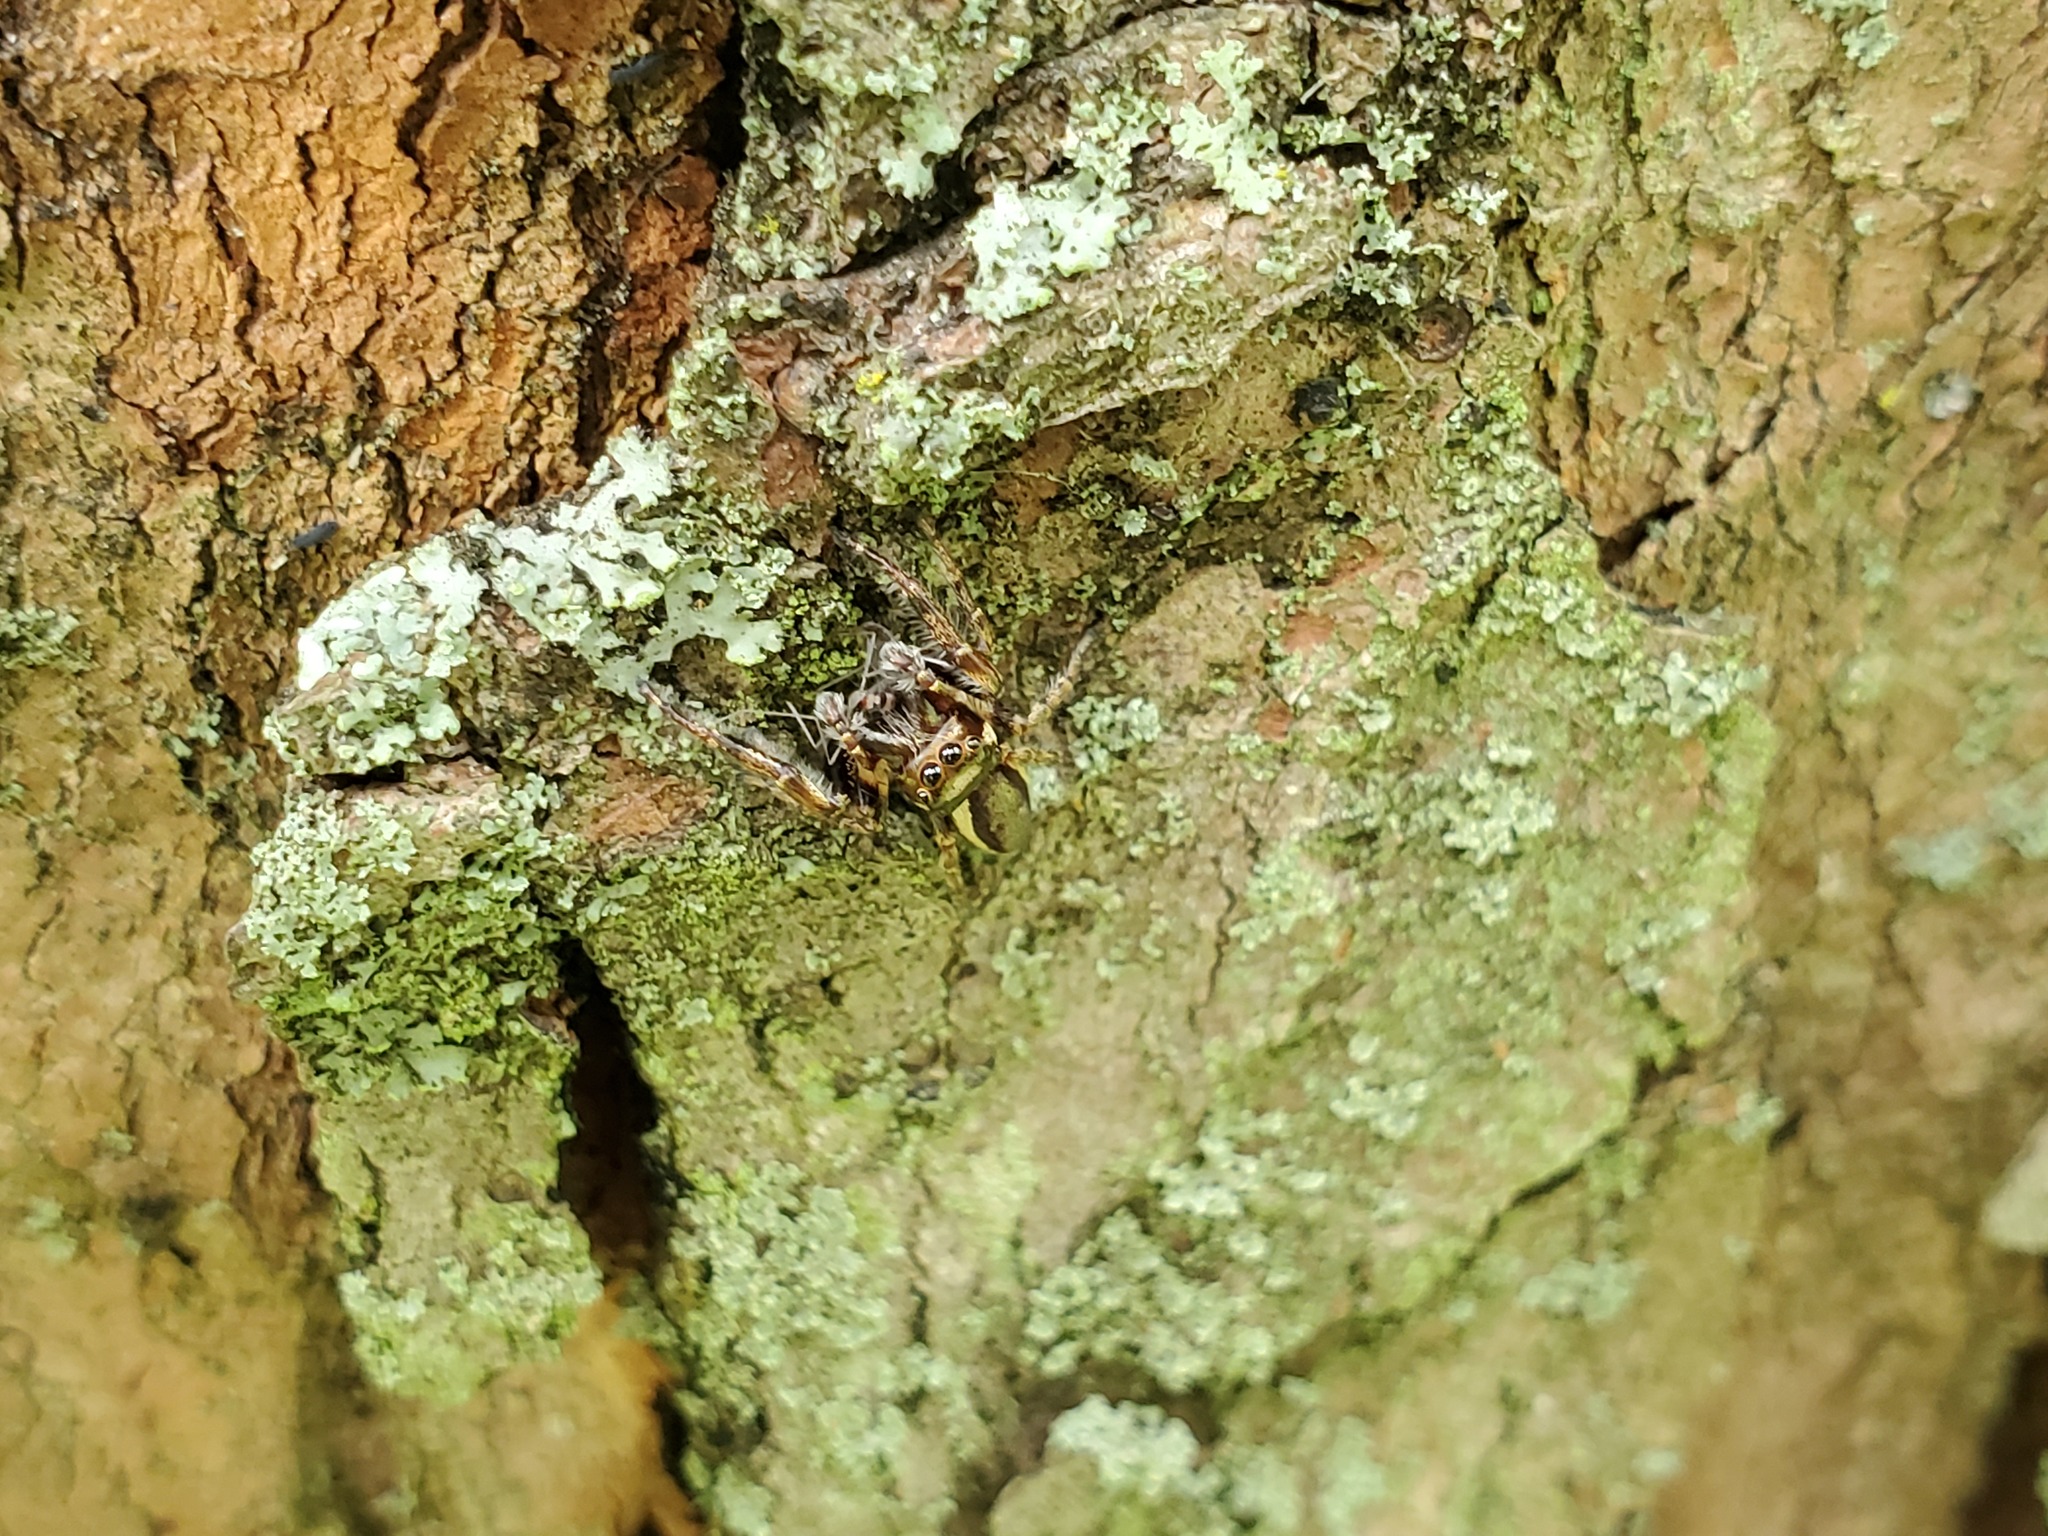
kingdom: Animalia
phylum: Arthropoda
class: Arachnida
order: Araneae
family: Salticidae
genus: Eris
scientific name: Eris militaris
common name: Bronze jumper
